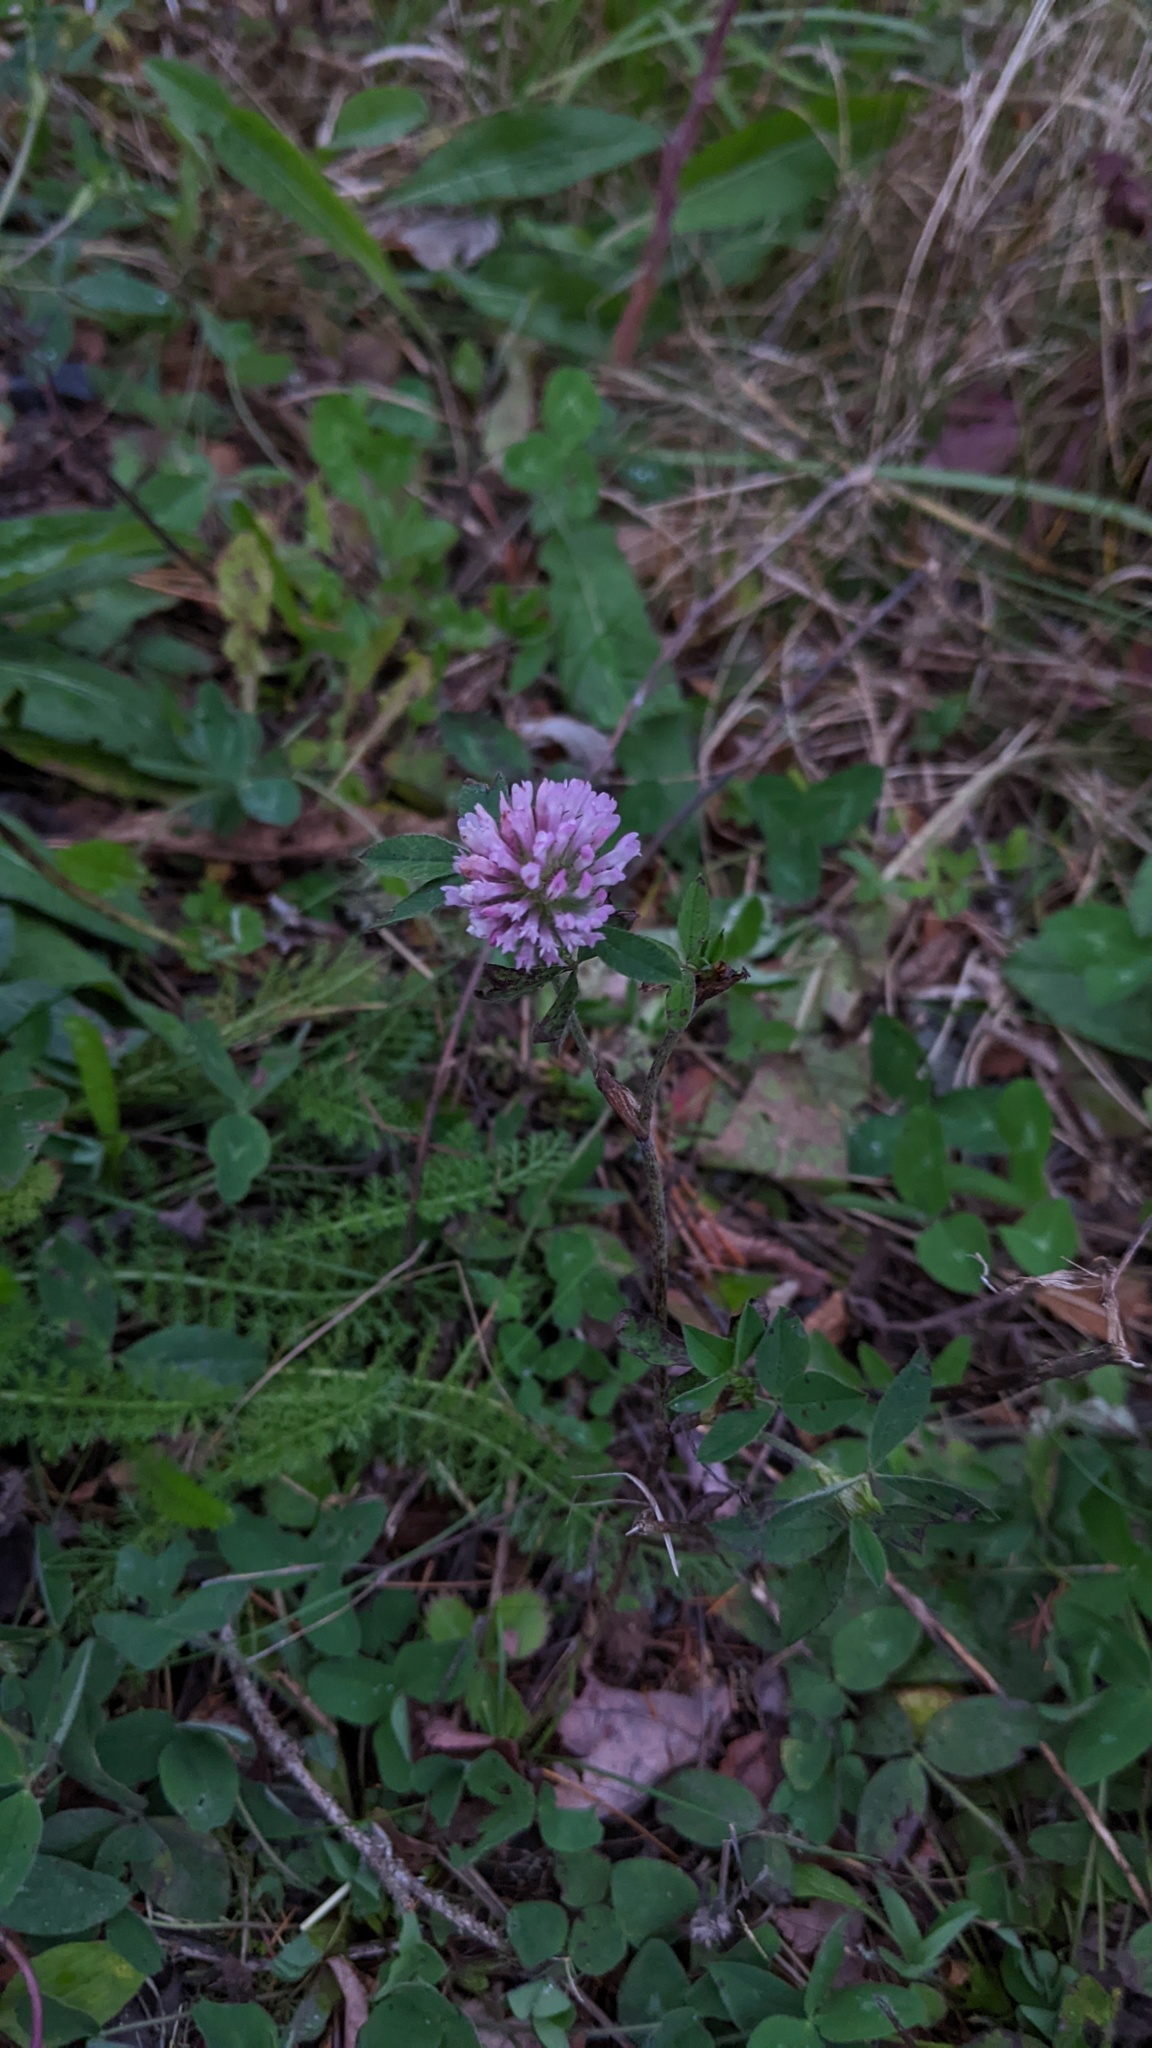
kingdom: Plantae
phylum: Tracheophyta
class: Magnoliopsida
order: Fabales
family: Fabaceae
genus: Trifolium
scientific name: Trifolium pratense
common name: Red clover
